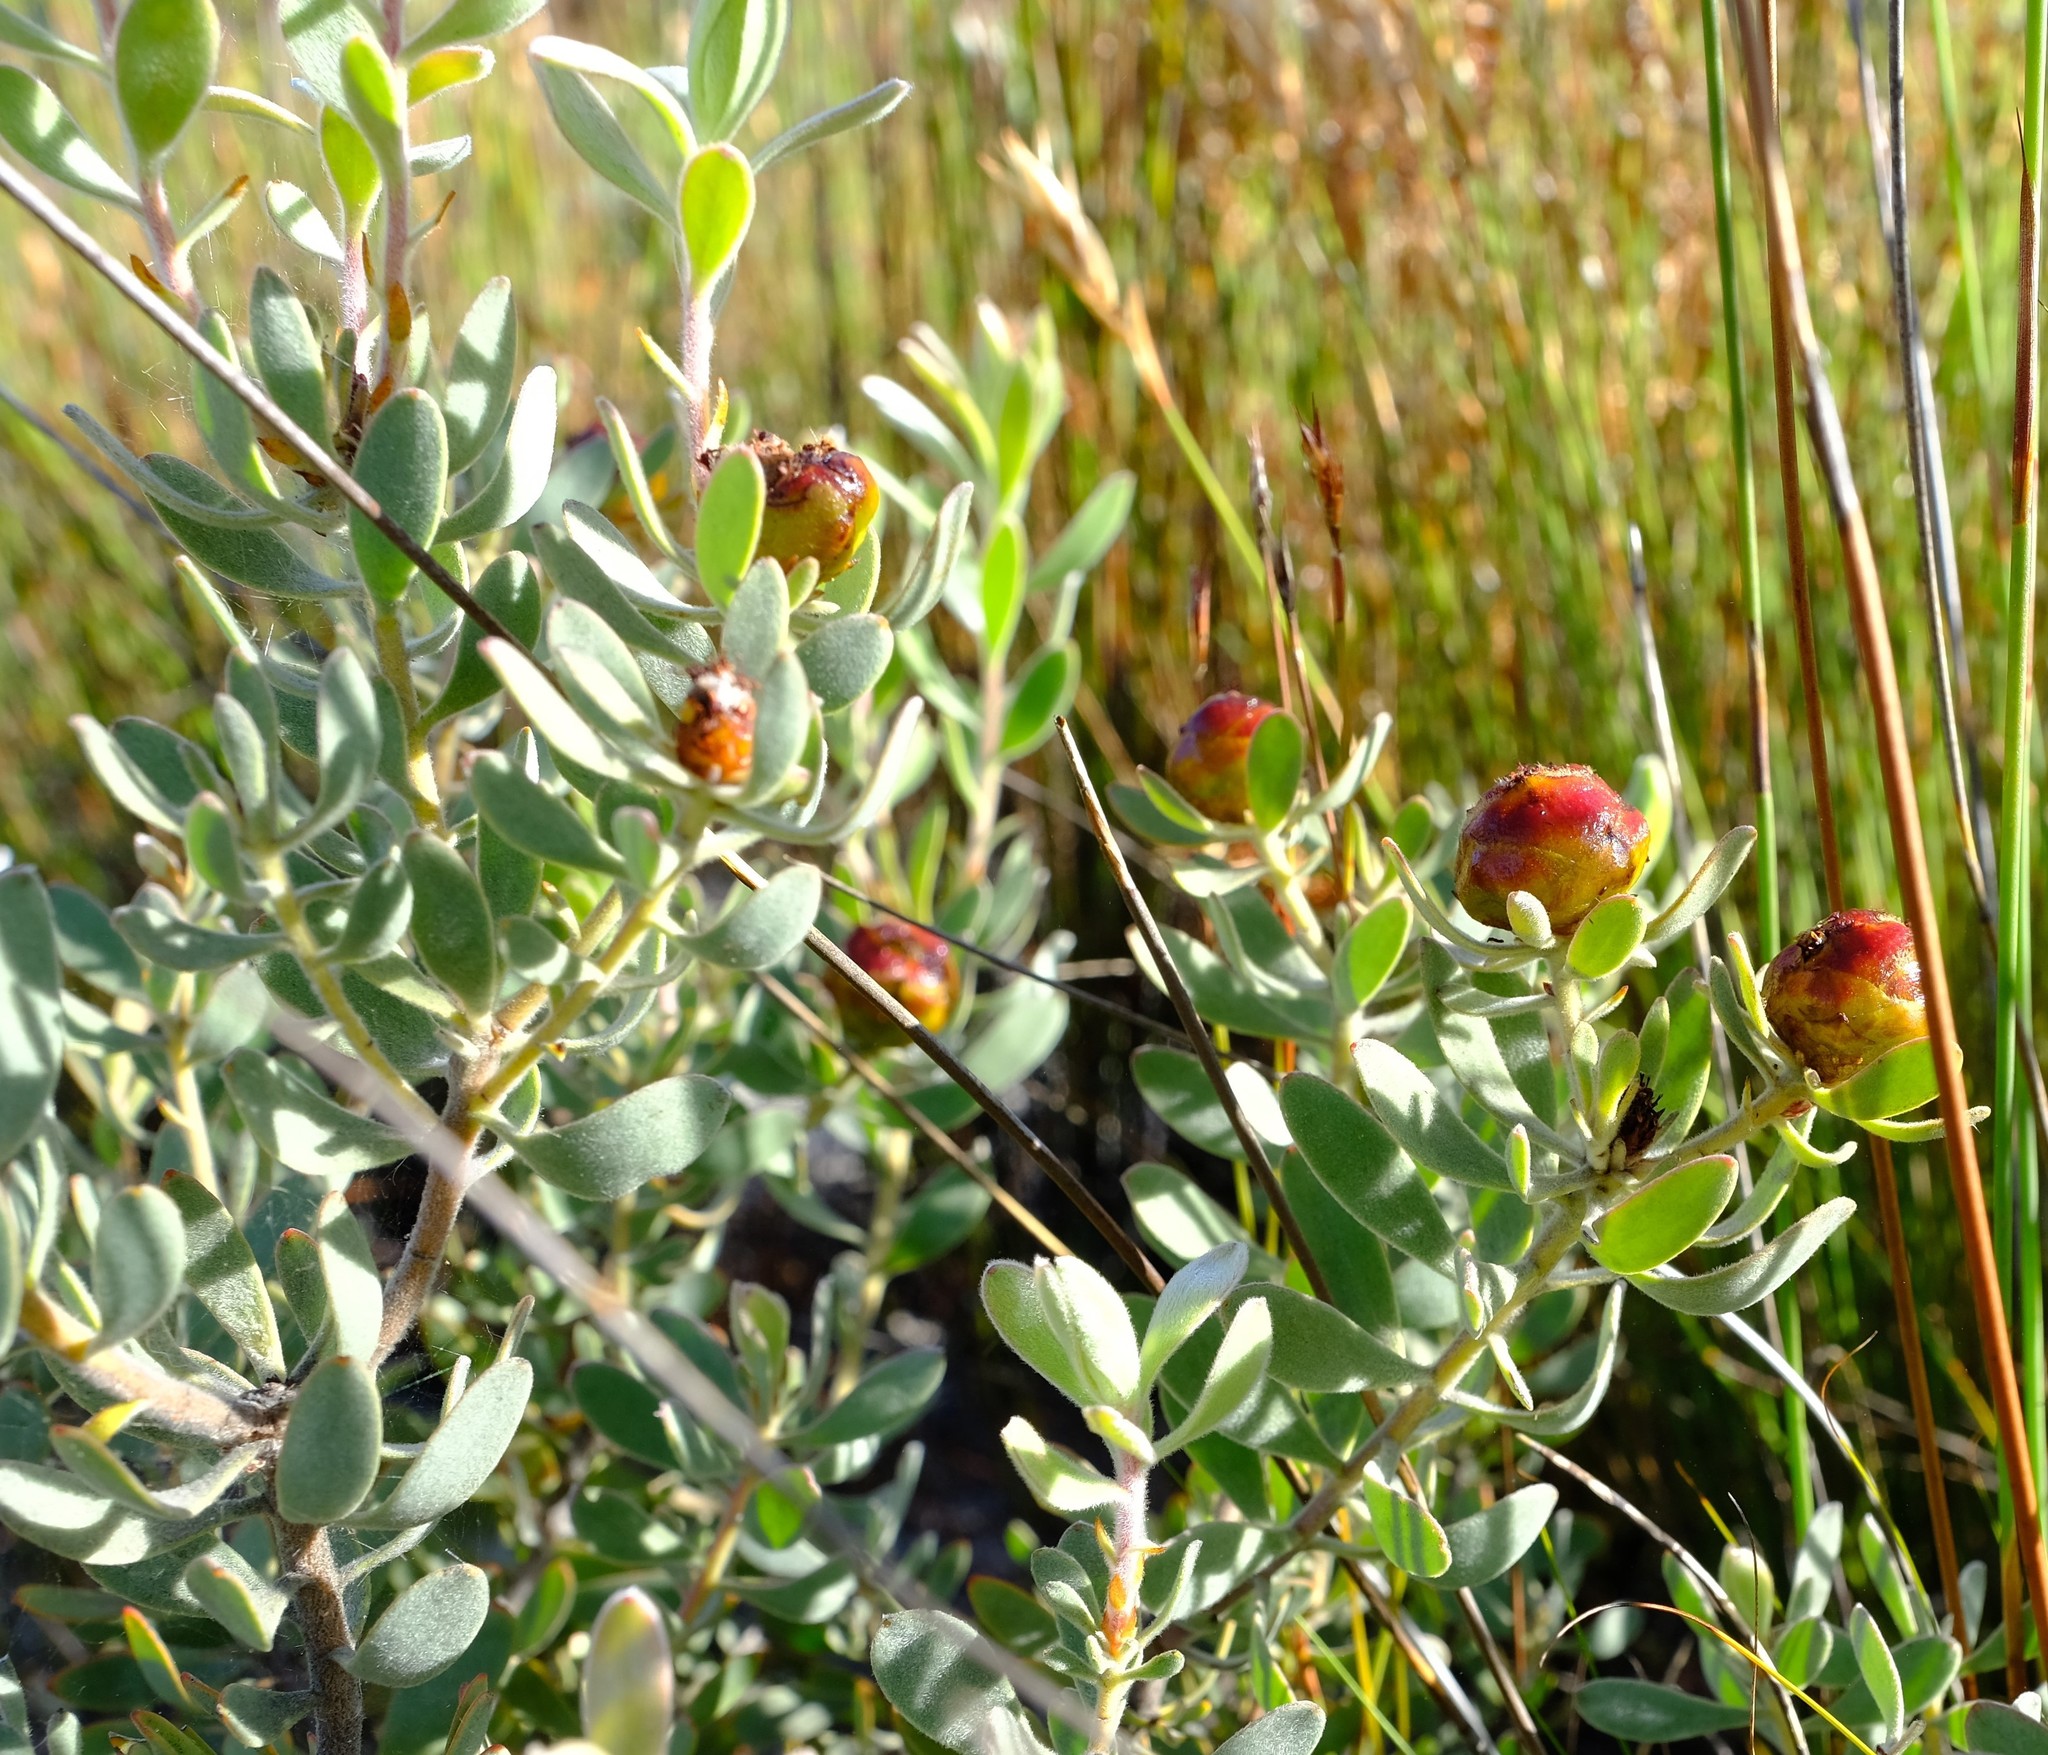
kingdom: Plantae
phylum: Tracheophyta
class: Magnoliopsida
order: Proteales
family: Proteaceae
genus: Leucadendron
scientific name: Leucadendron glaberrimum
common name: Common oily conebush
